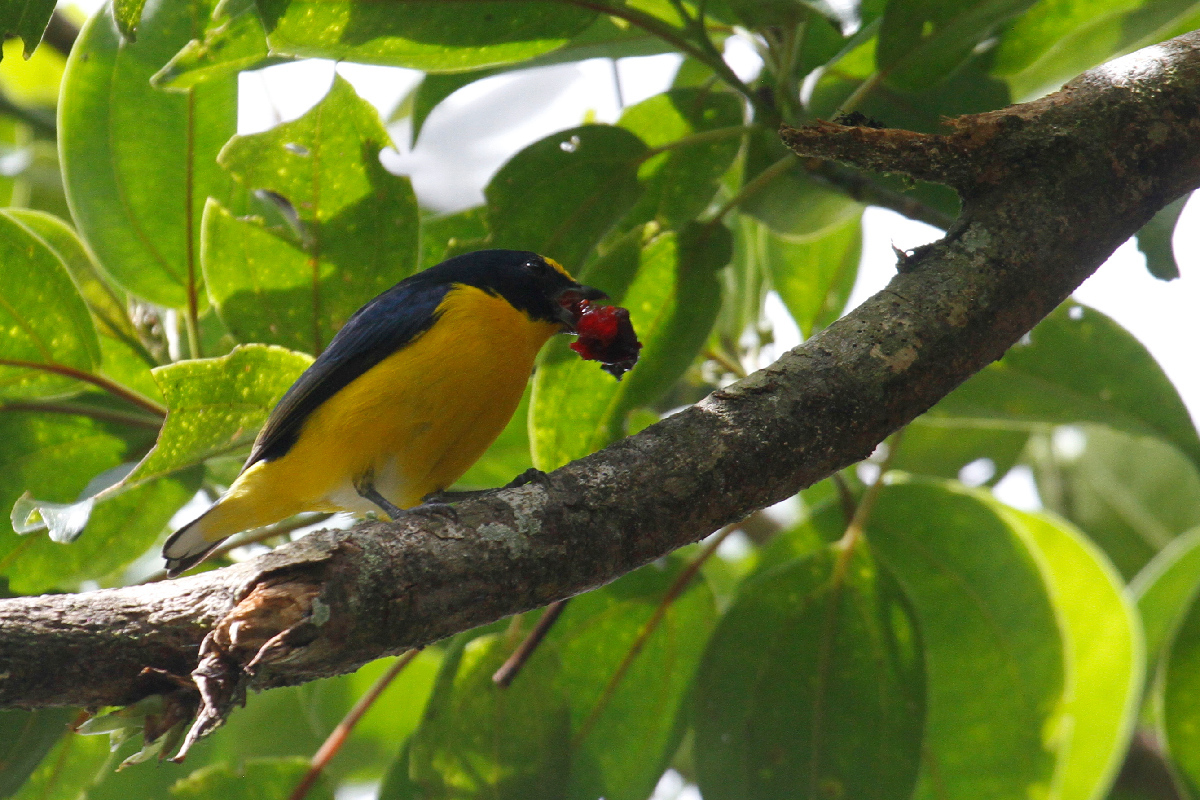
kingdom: Animalia
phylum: Chordata
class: Aves
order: Passeriformes
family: Fringillidae
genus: Euphonia
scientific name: Euphonia hirundinacea
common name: Yellow-throated euphonia
